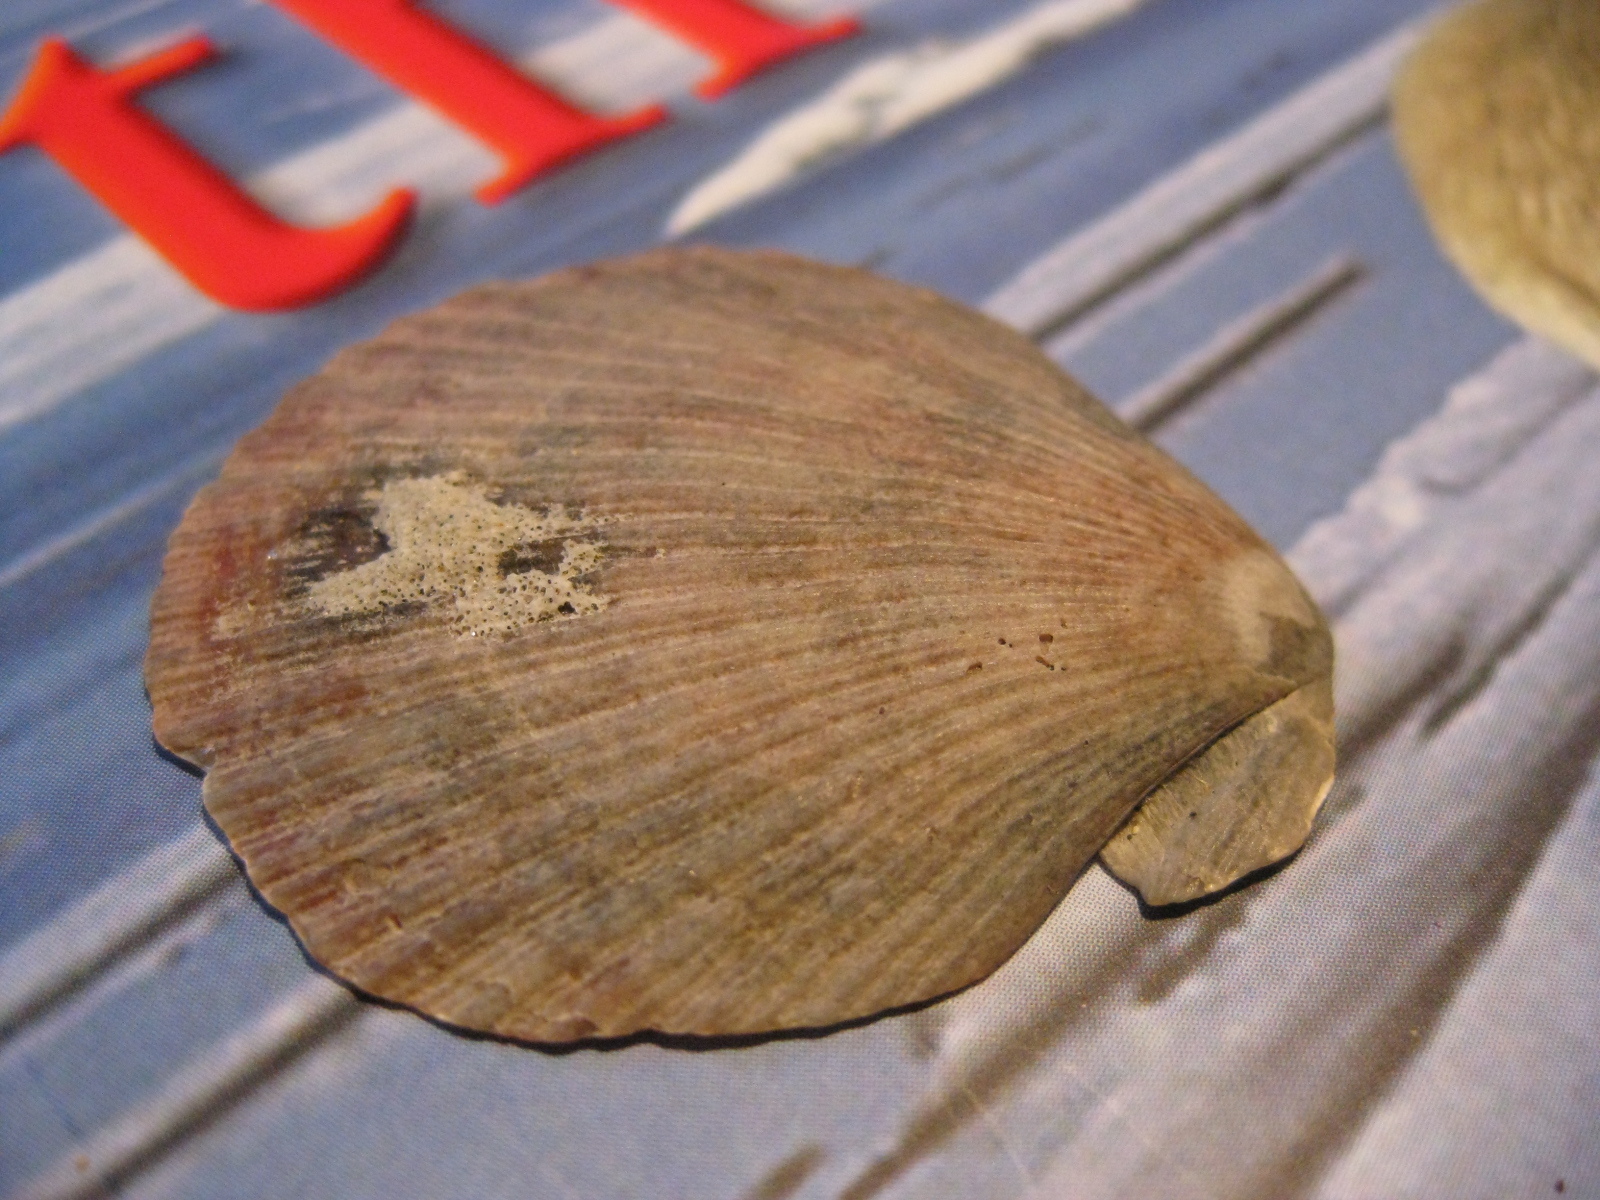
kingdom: Animalia
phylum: Mollusca
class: Bivalvia
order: Pectinida
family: Pectinidae
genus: Talochlamys
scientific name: Talochlamys gemmulata
